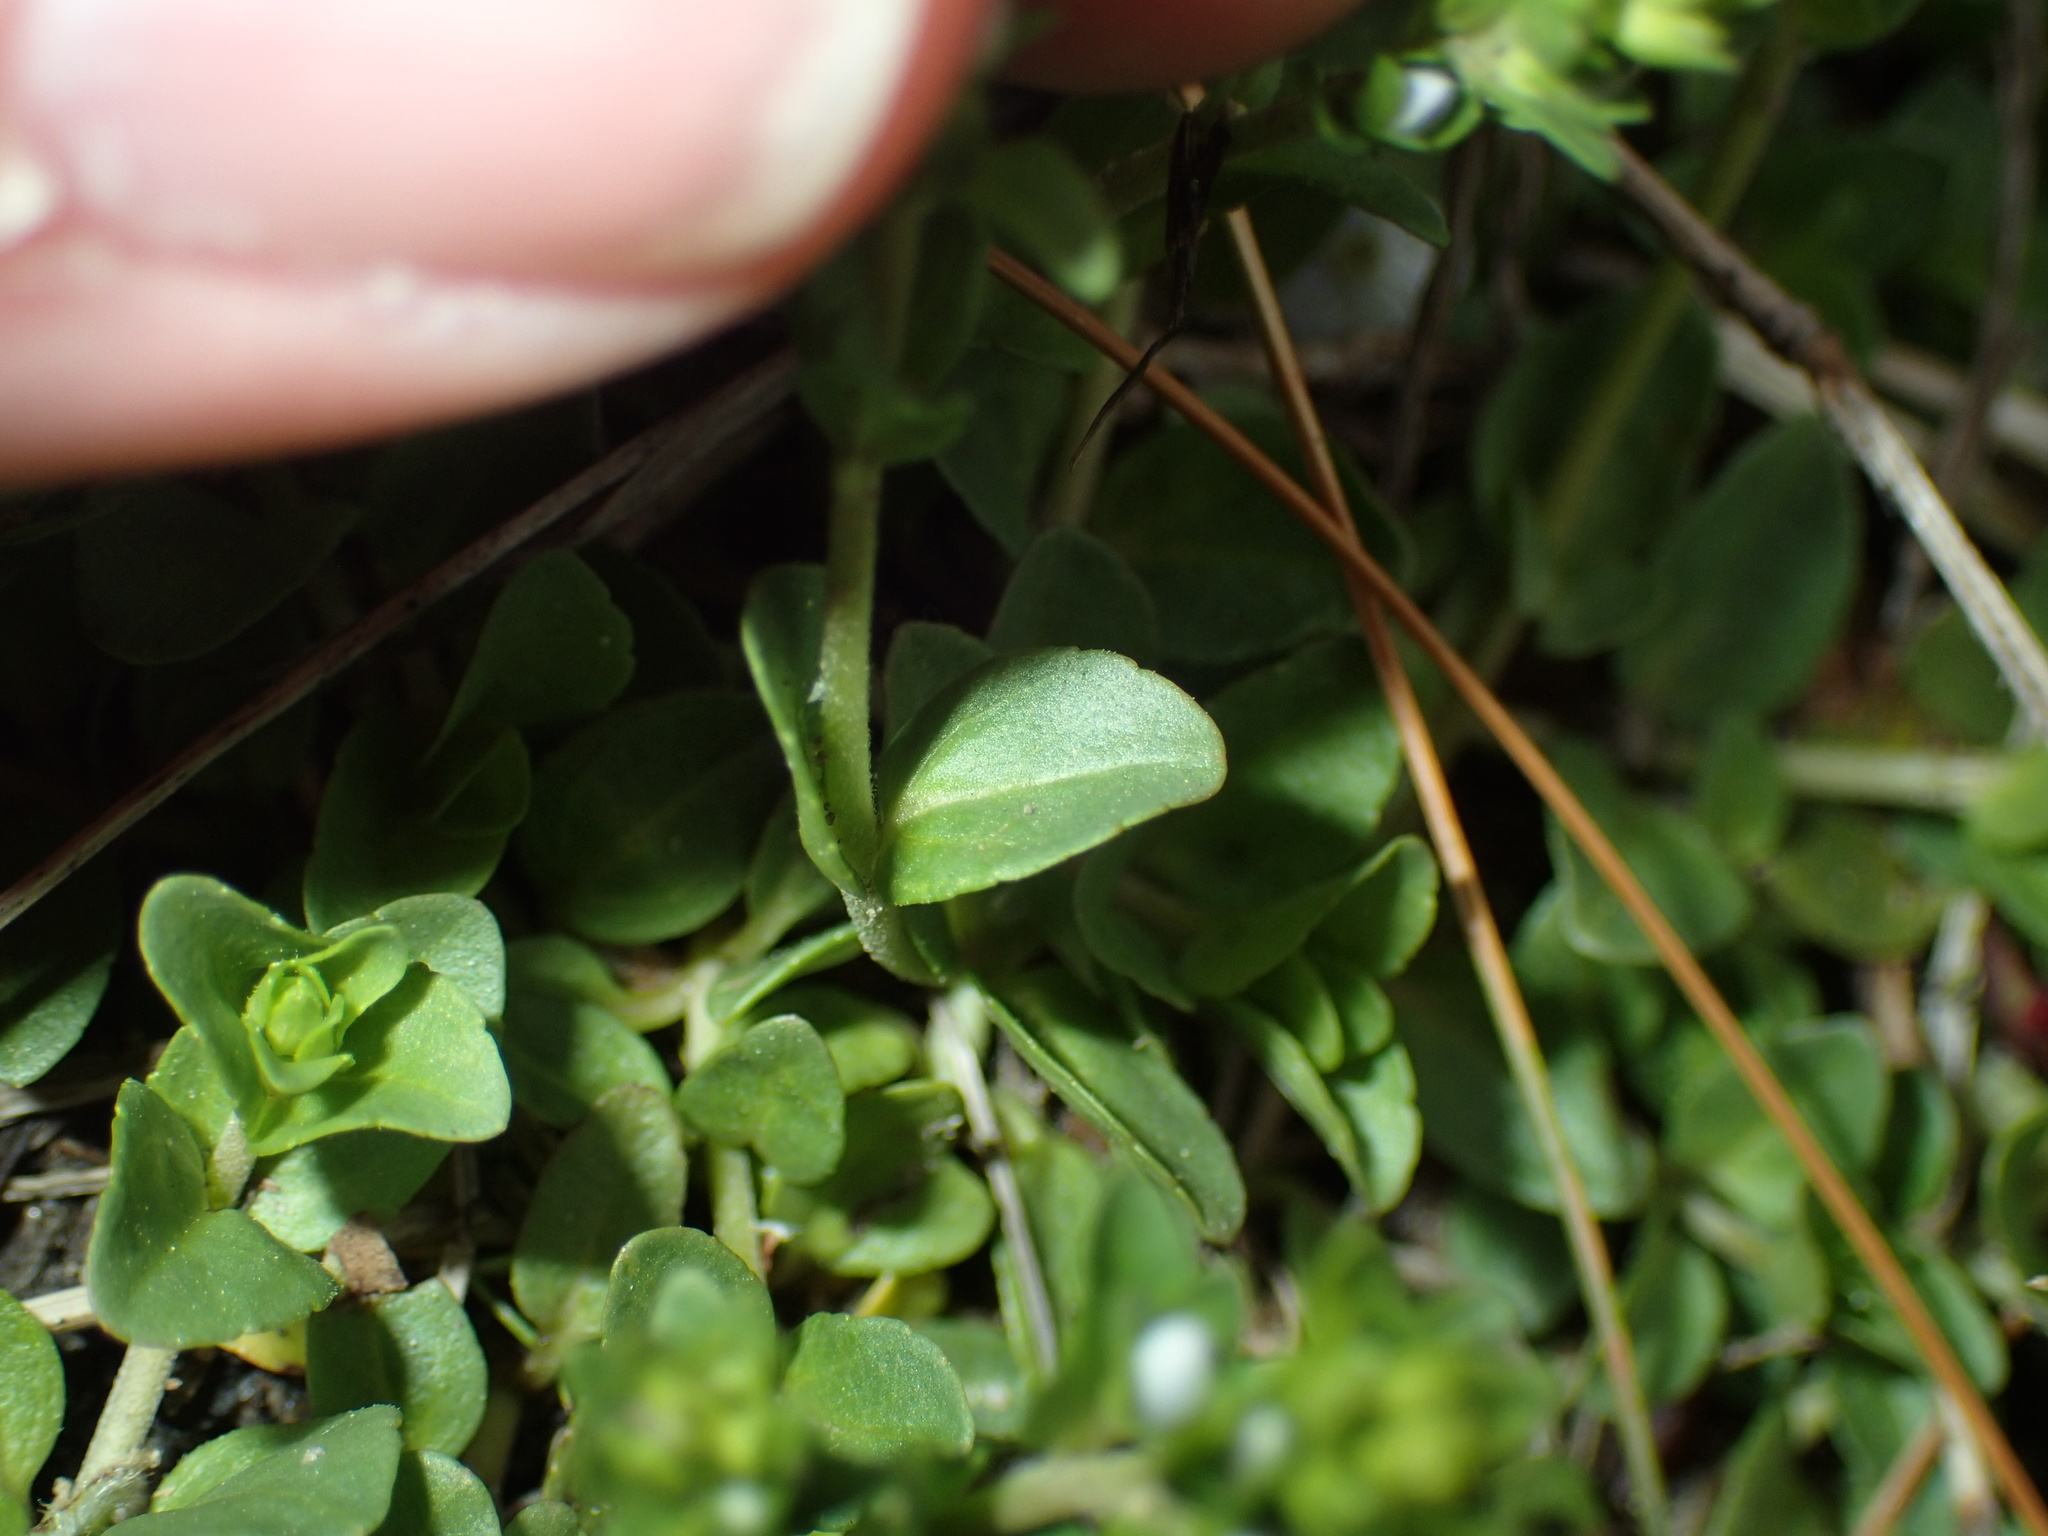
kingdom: Plantae
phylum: Tracheophyta
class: Magnoliopsida
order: Lamiales
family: Plantaginaceae
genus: Veronica
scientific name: Veronica serpyllifolia
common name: Thyme-leaved speedwell
